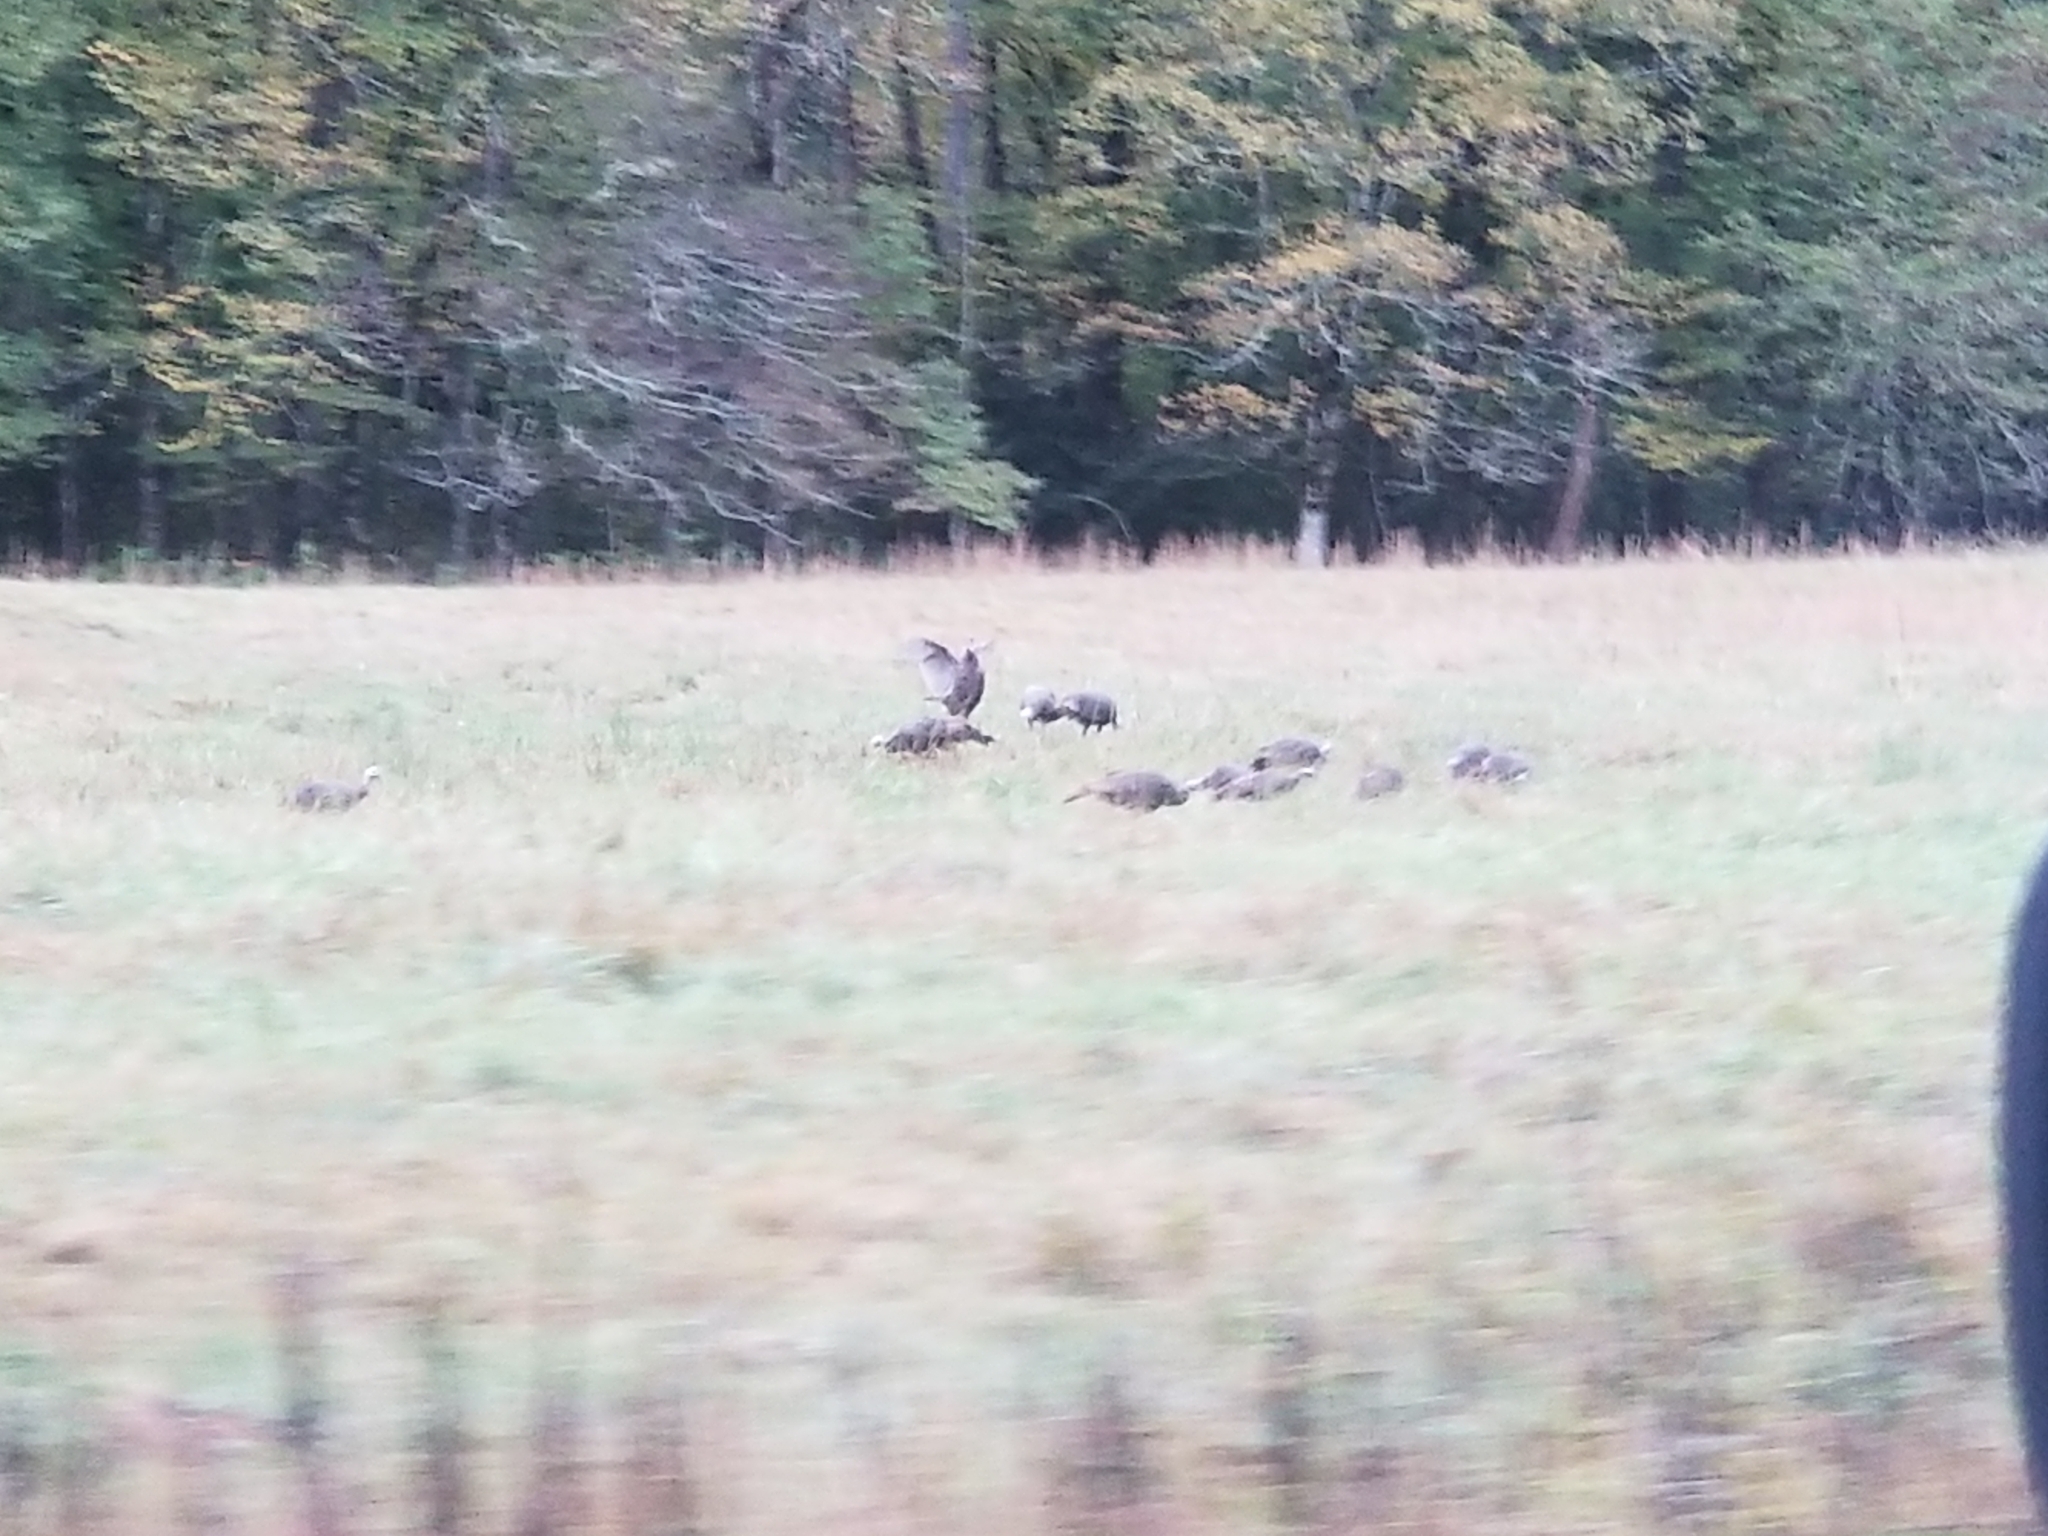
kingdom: Animalia
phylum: Chordata
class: Aves
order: Galliformes
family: Phasianidae
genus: Meleagris
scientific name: Meleagris gallopavo
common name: Wild turkey
